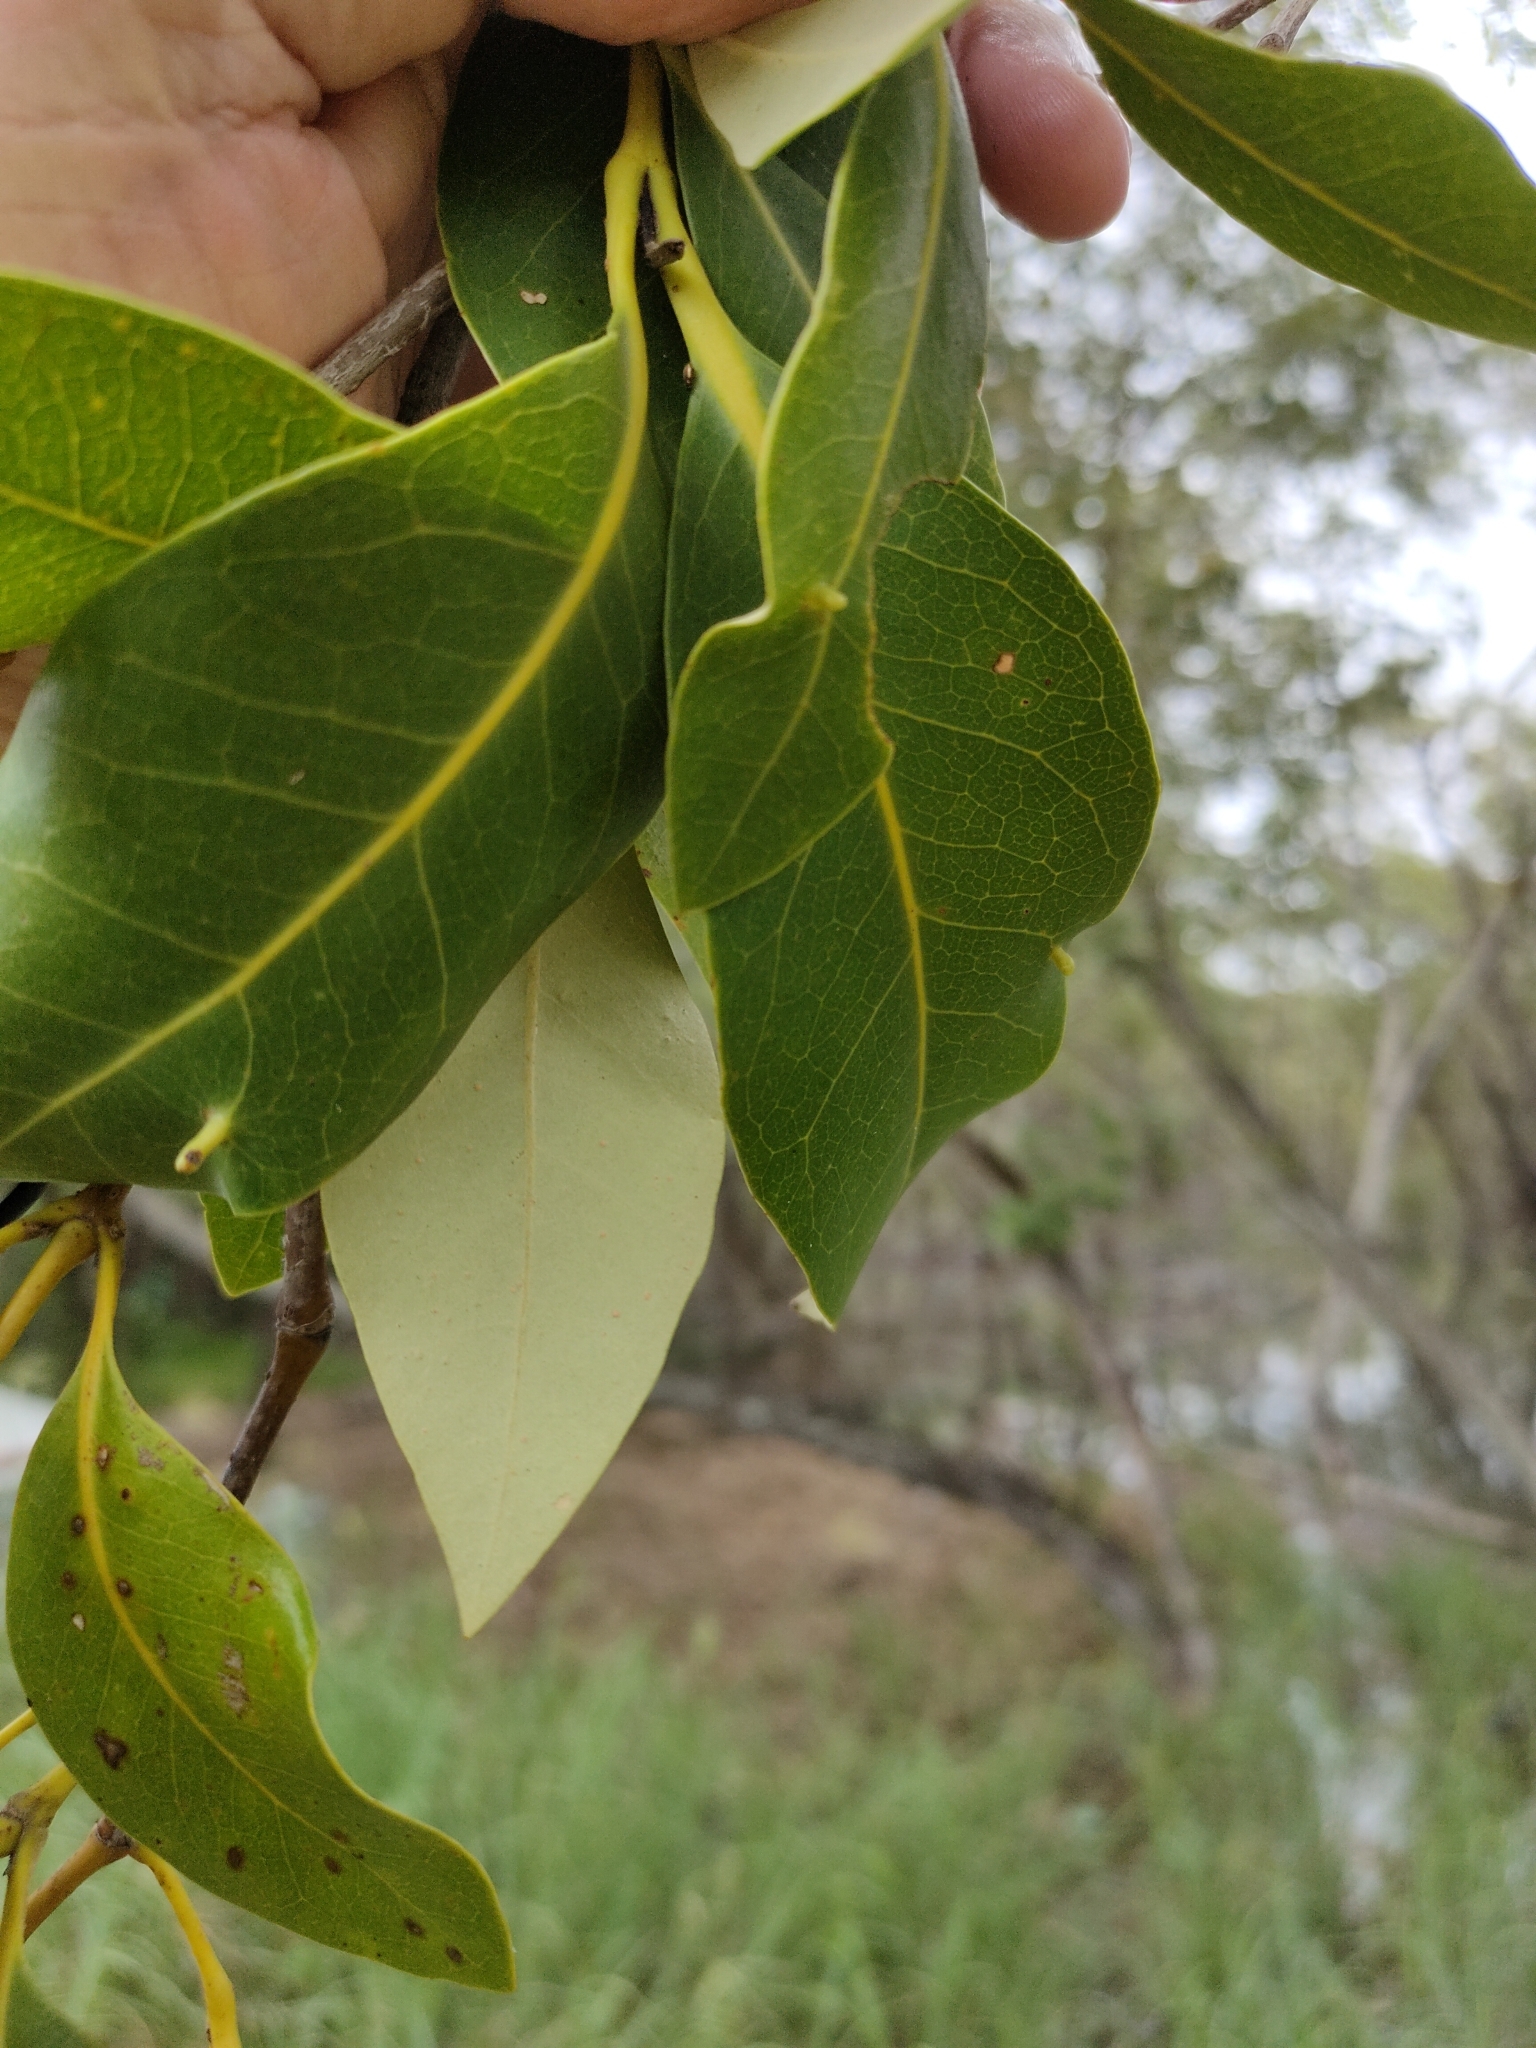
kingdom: Plantae
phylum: Tracheophyta
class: Magnoliopsida
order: Lamiales
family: Acanthaceae
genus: Avicennia
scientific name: Avicennia marina
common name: Gray mangrove
